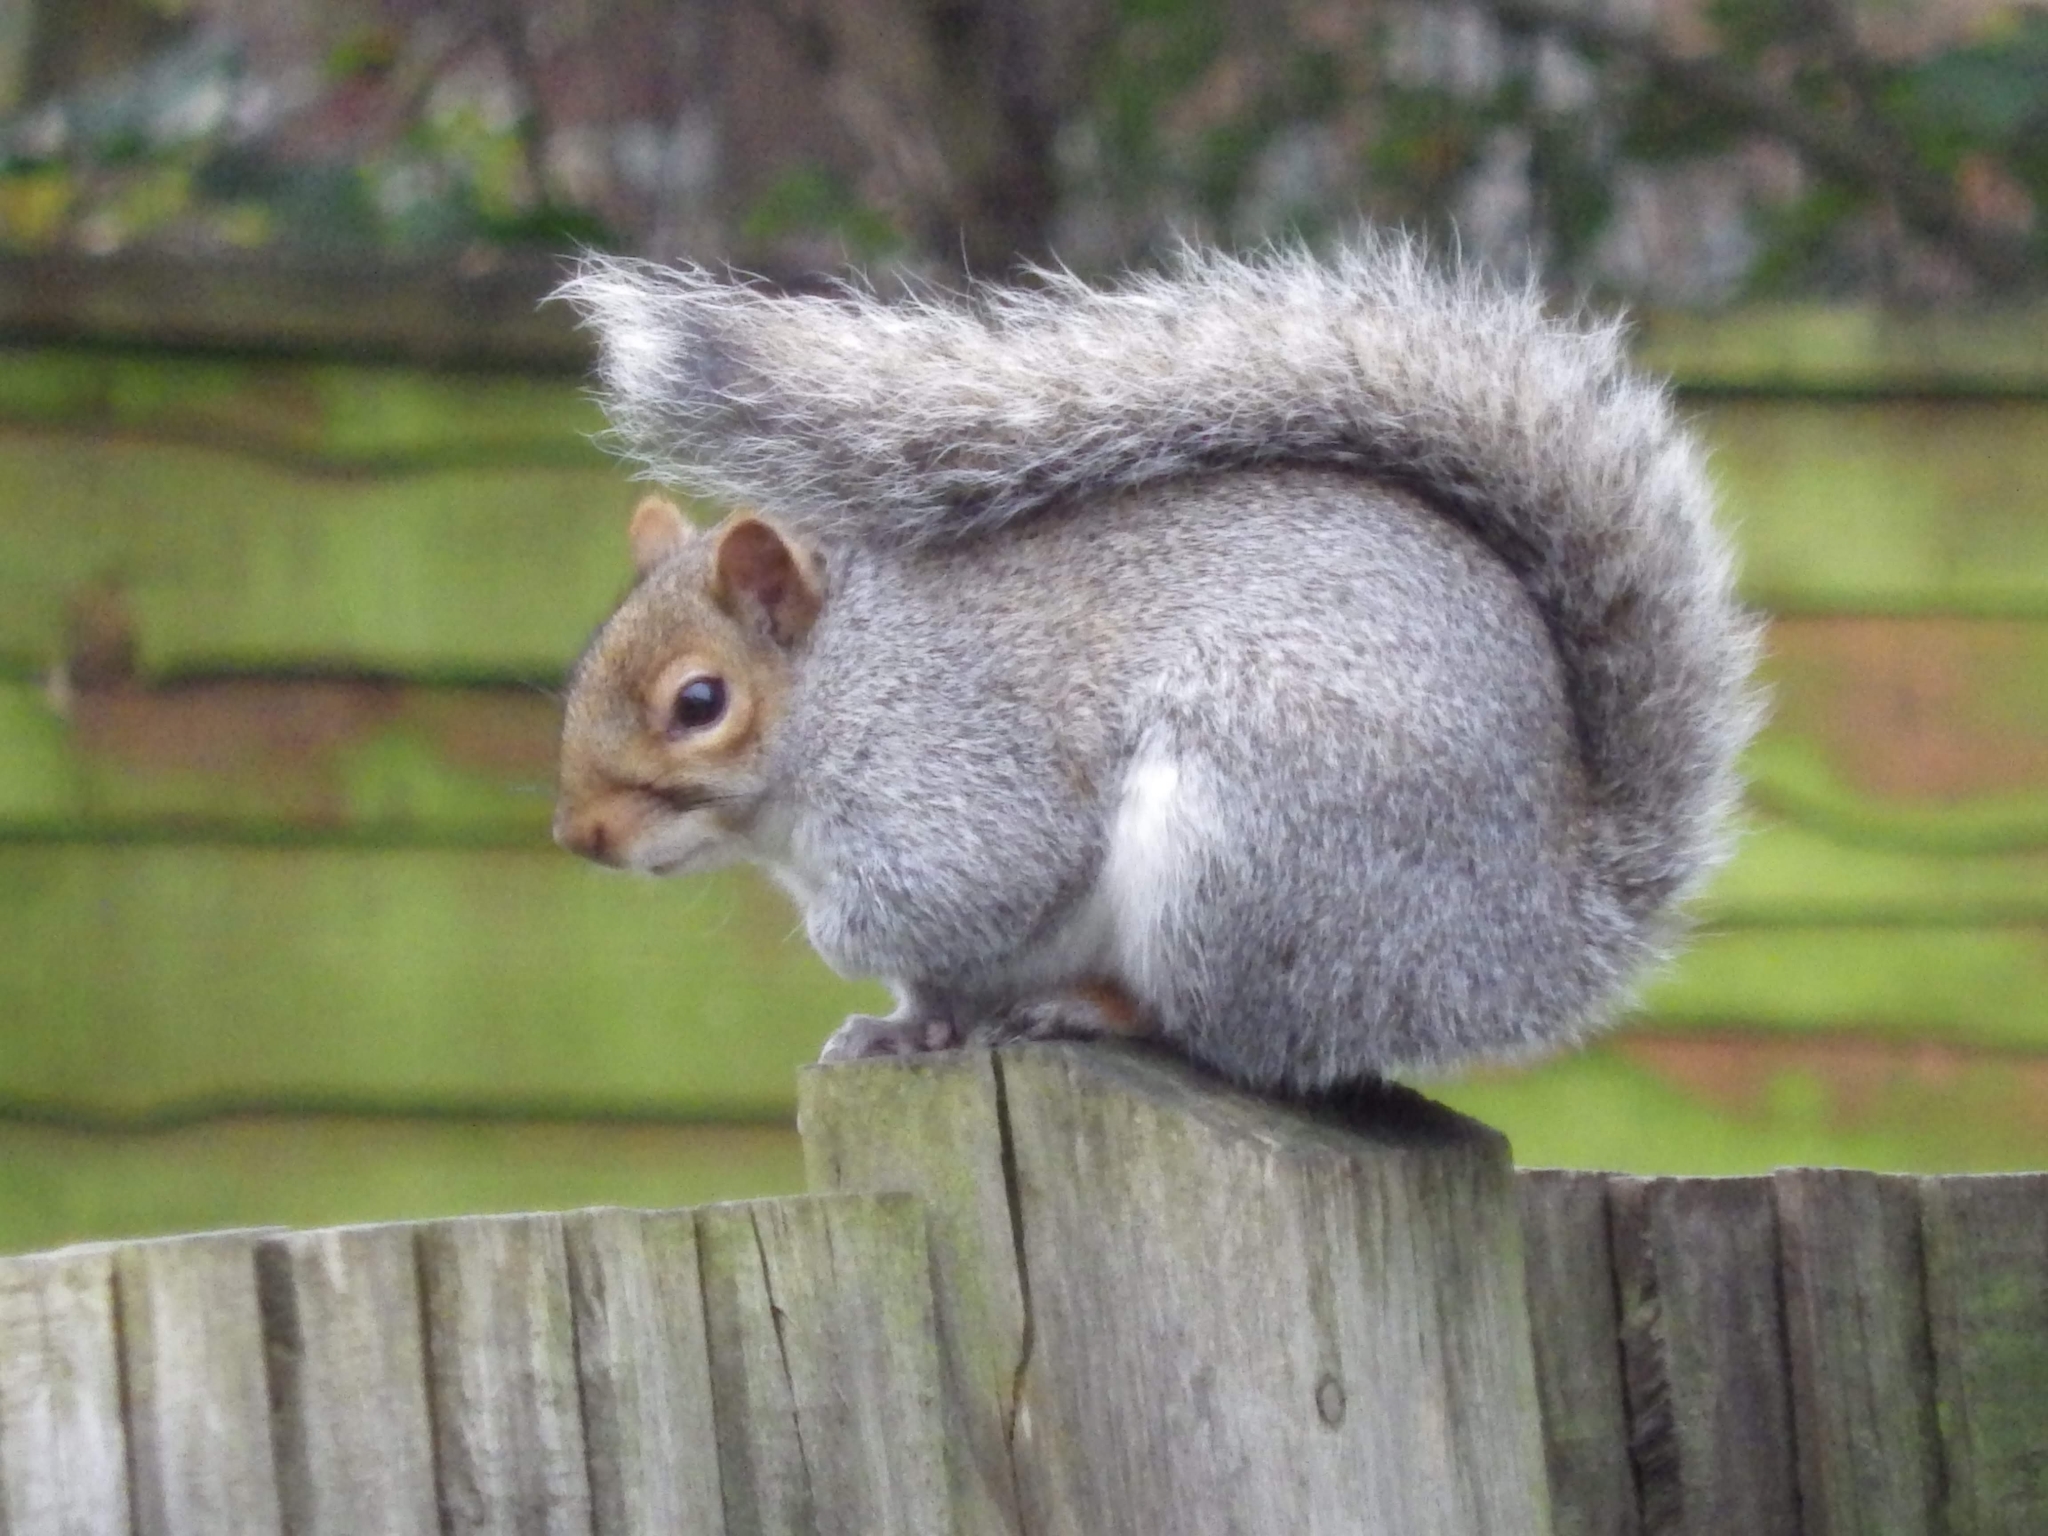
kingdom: Animalia
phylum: Chordata
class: Mammalia
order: Rodentia
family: Sciuridae
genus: Sciurus
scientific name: Sciurus carolinensis
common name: Eastern gray squirrel
